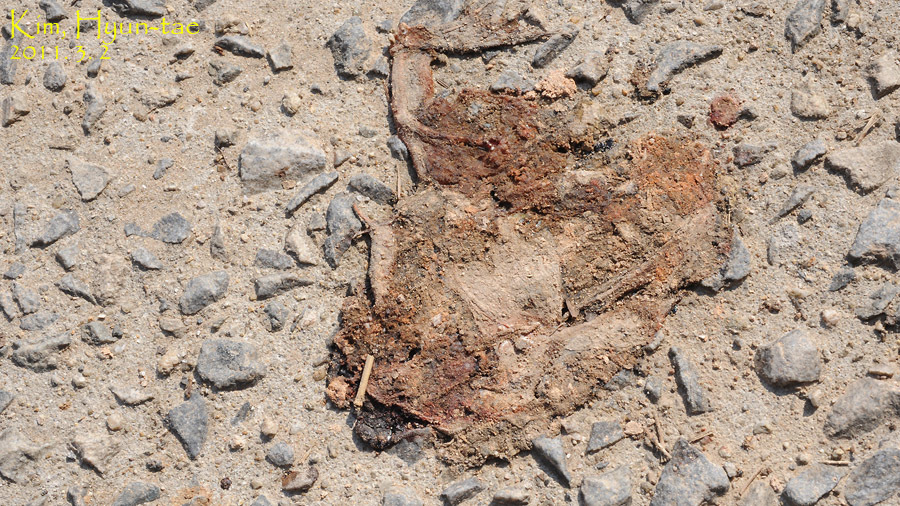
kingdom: Animalia
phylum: Chordata
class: Amphibia
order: Anura
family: Ranidae
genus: Rana
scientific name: Rana uenoi
